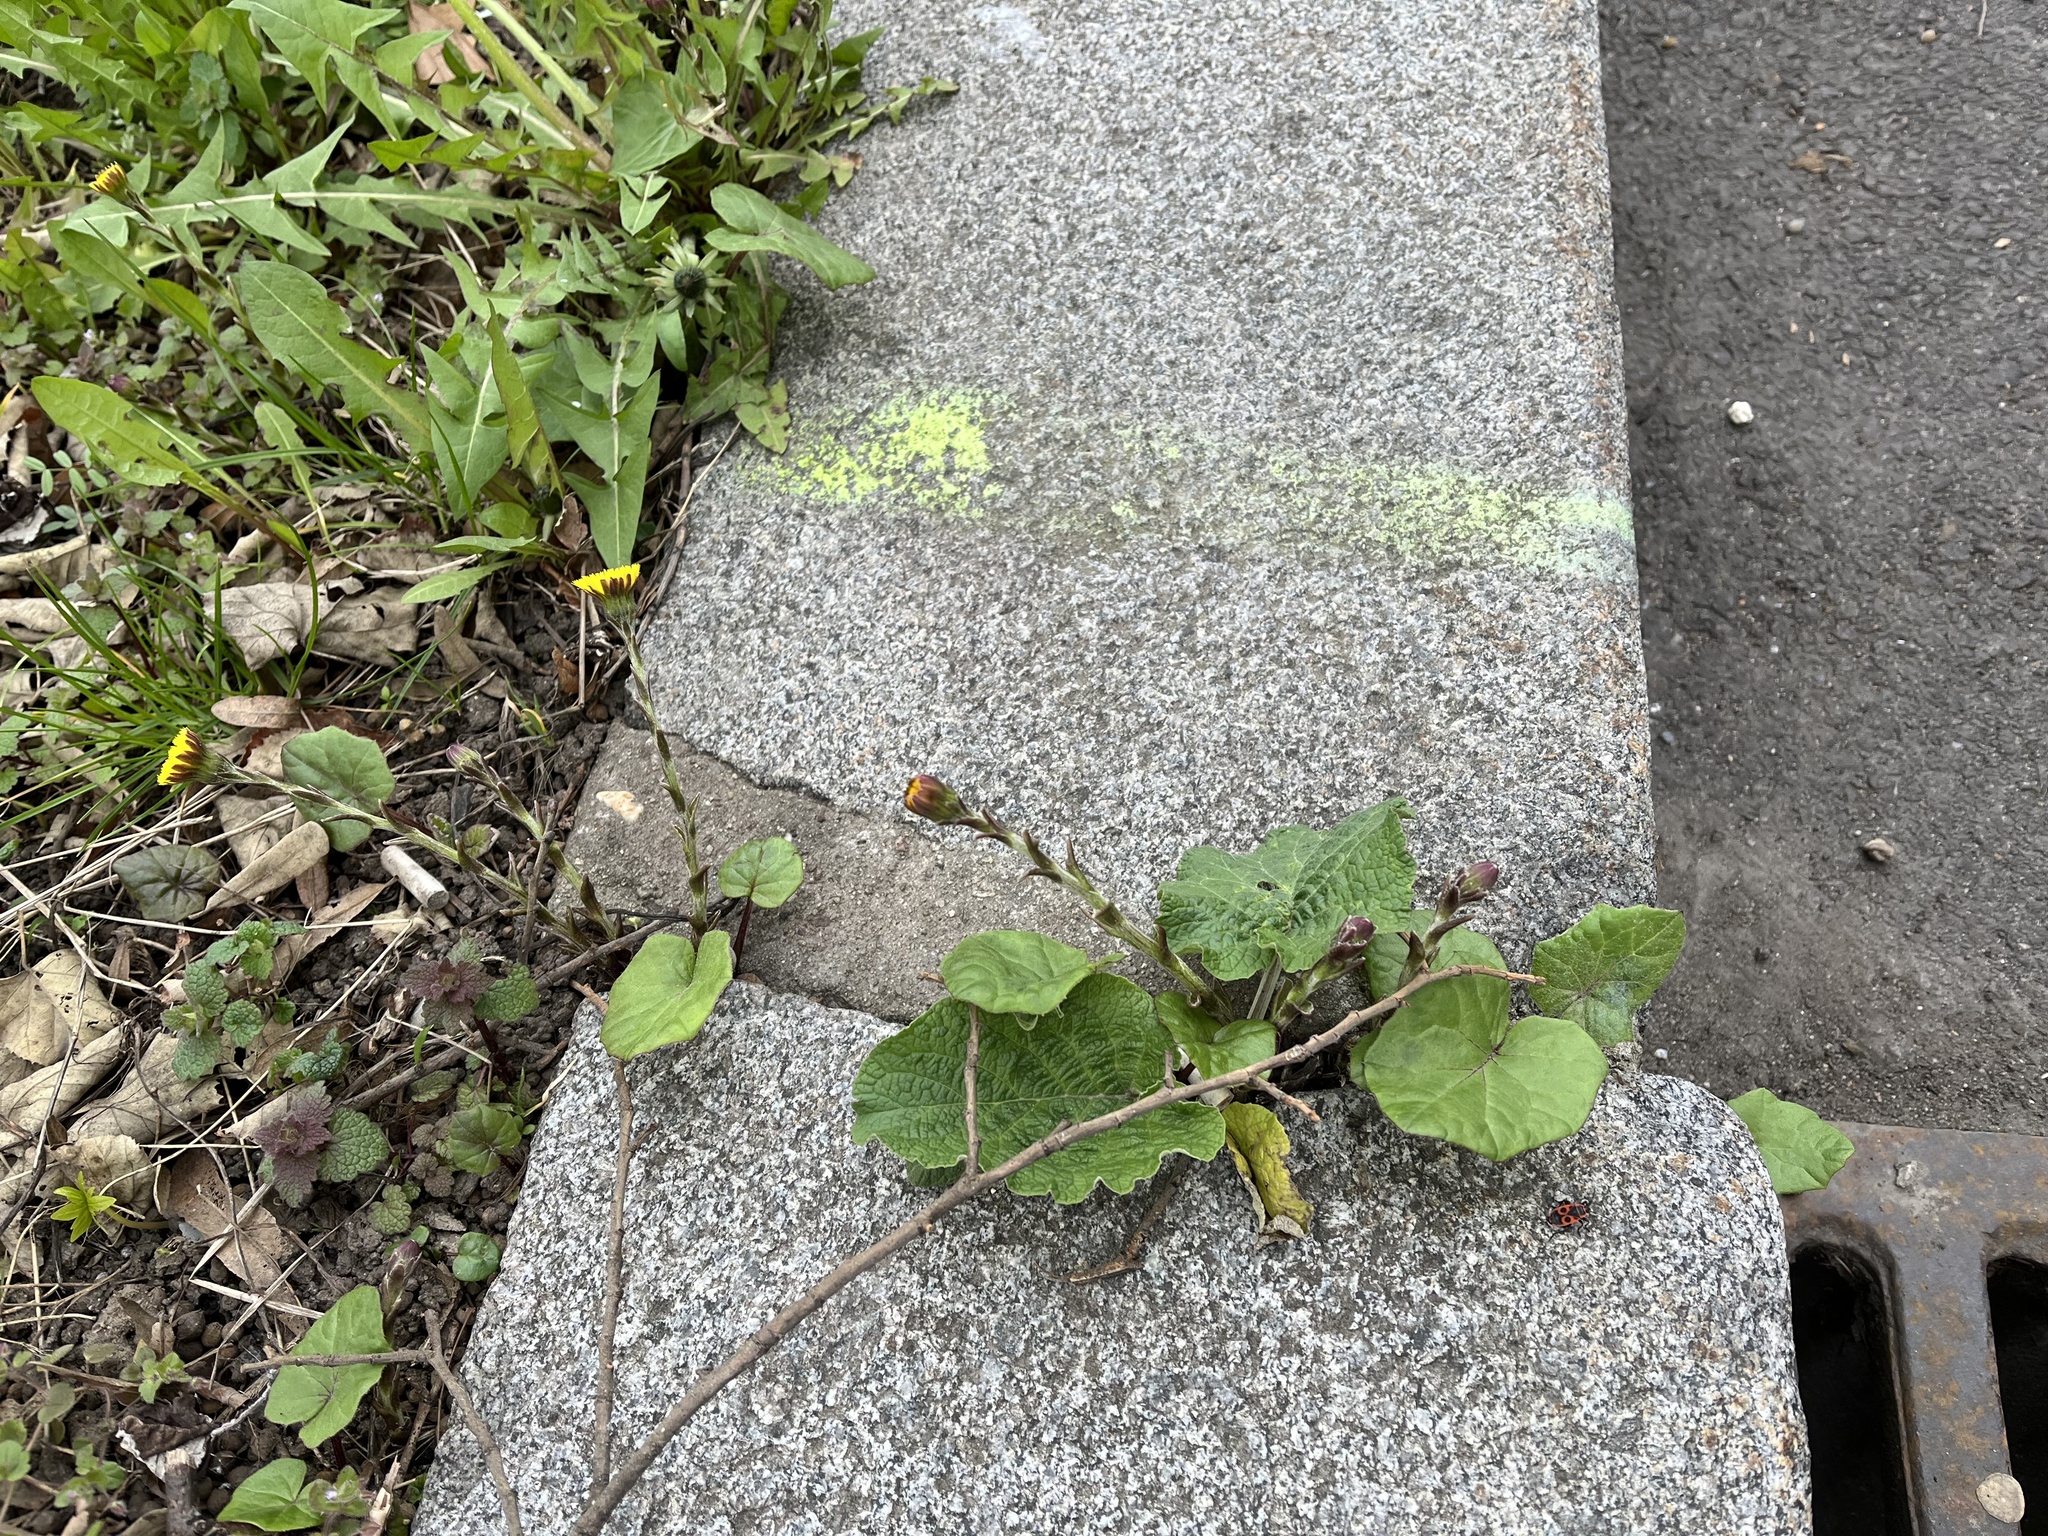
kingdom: Plantae
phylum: Tracheophyta
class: Magnoliopsida
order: Asterales
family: Asteraceae
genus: Tussilago
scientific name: Tussilago farfara
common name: Coltsfoot
